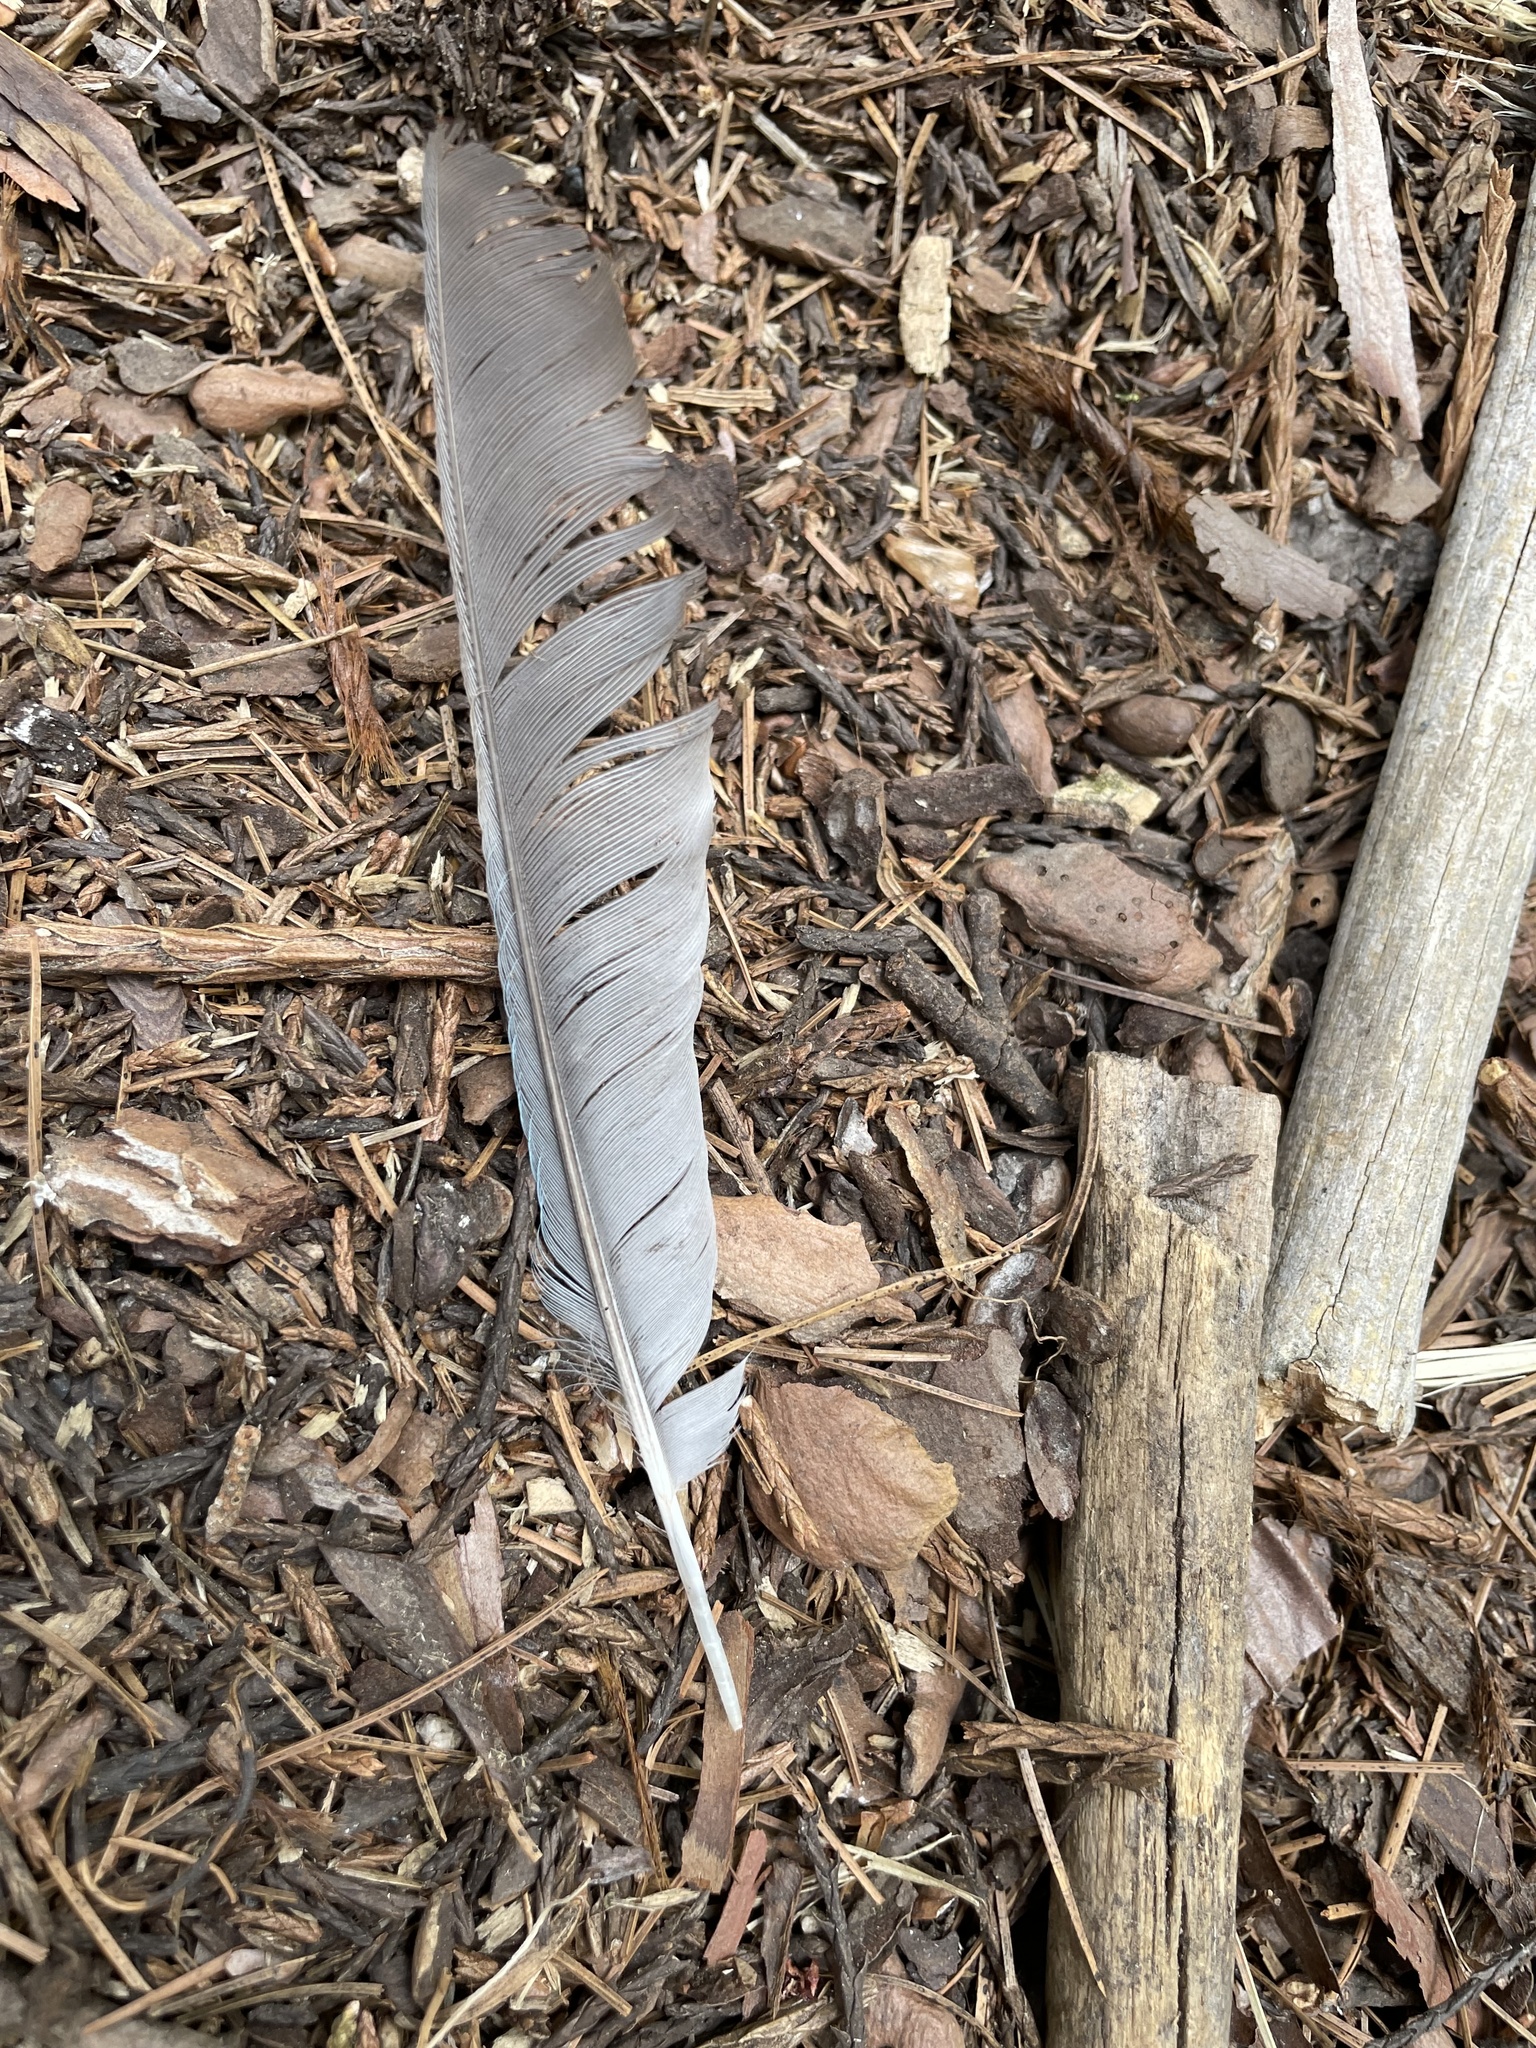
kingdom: Animalia
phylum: Chordata
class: Aves
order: Passeriformes
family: Corvidae
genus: Cyanocitta
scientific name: Cyanocitta stelleri
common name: Steller's jay
